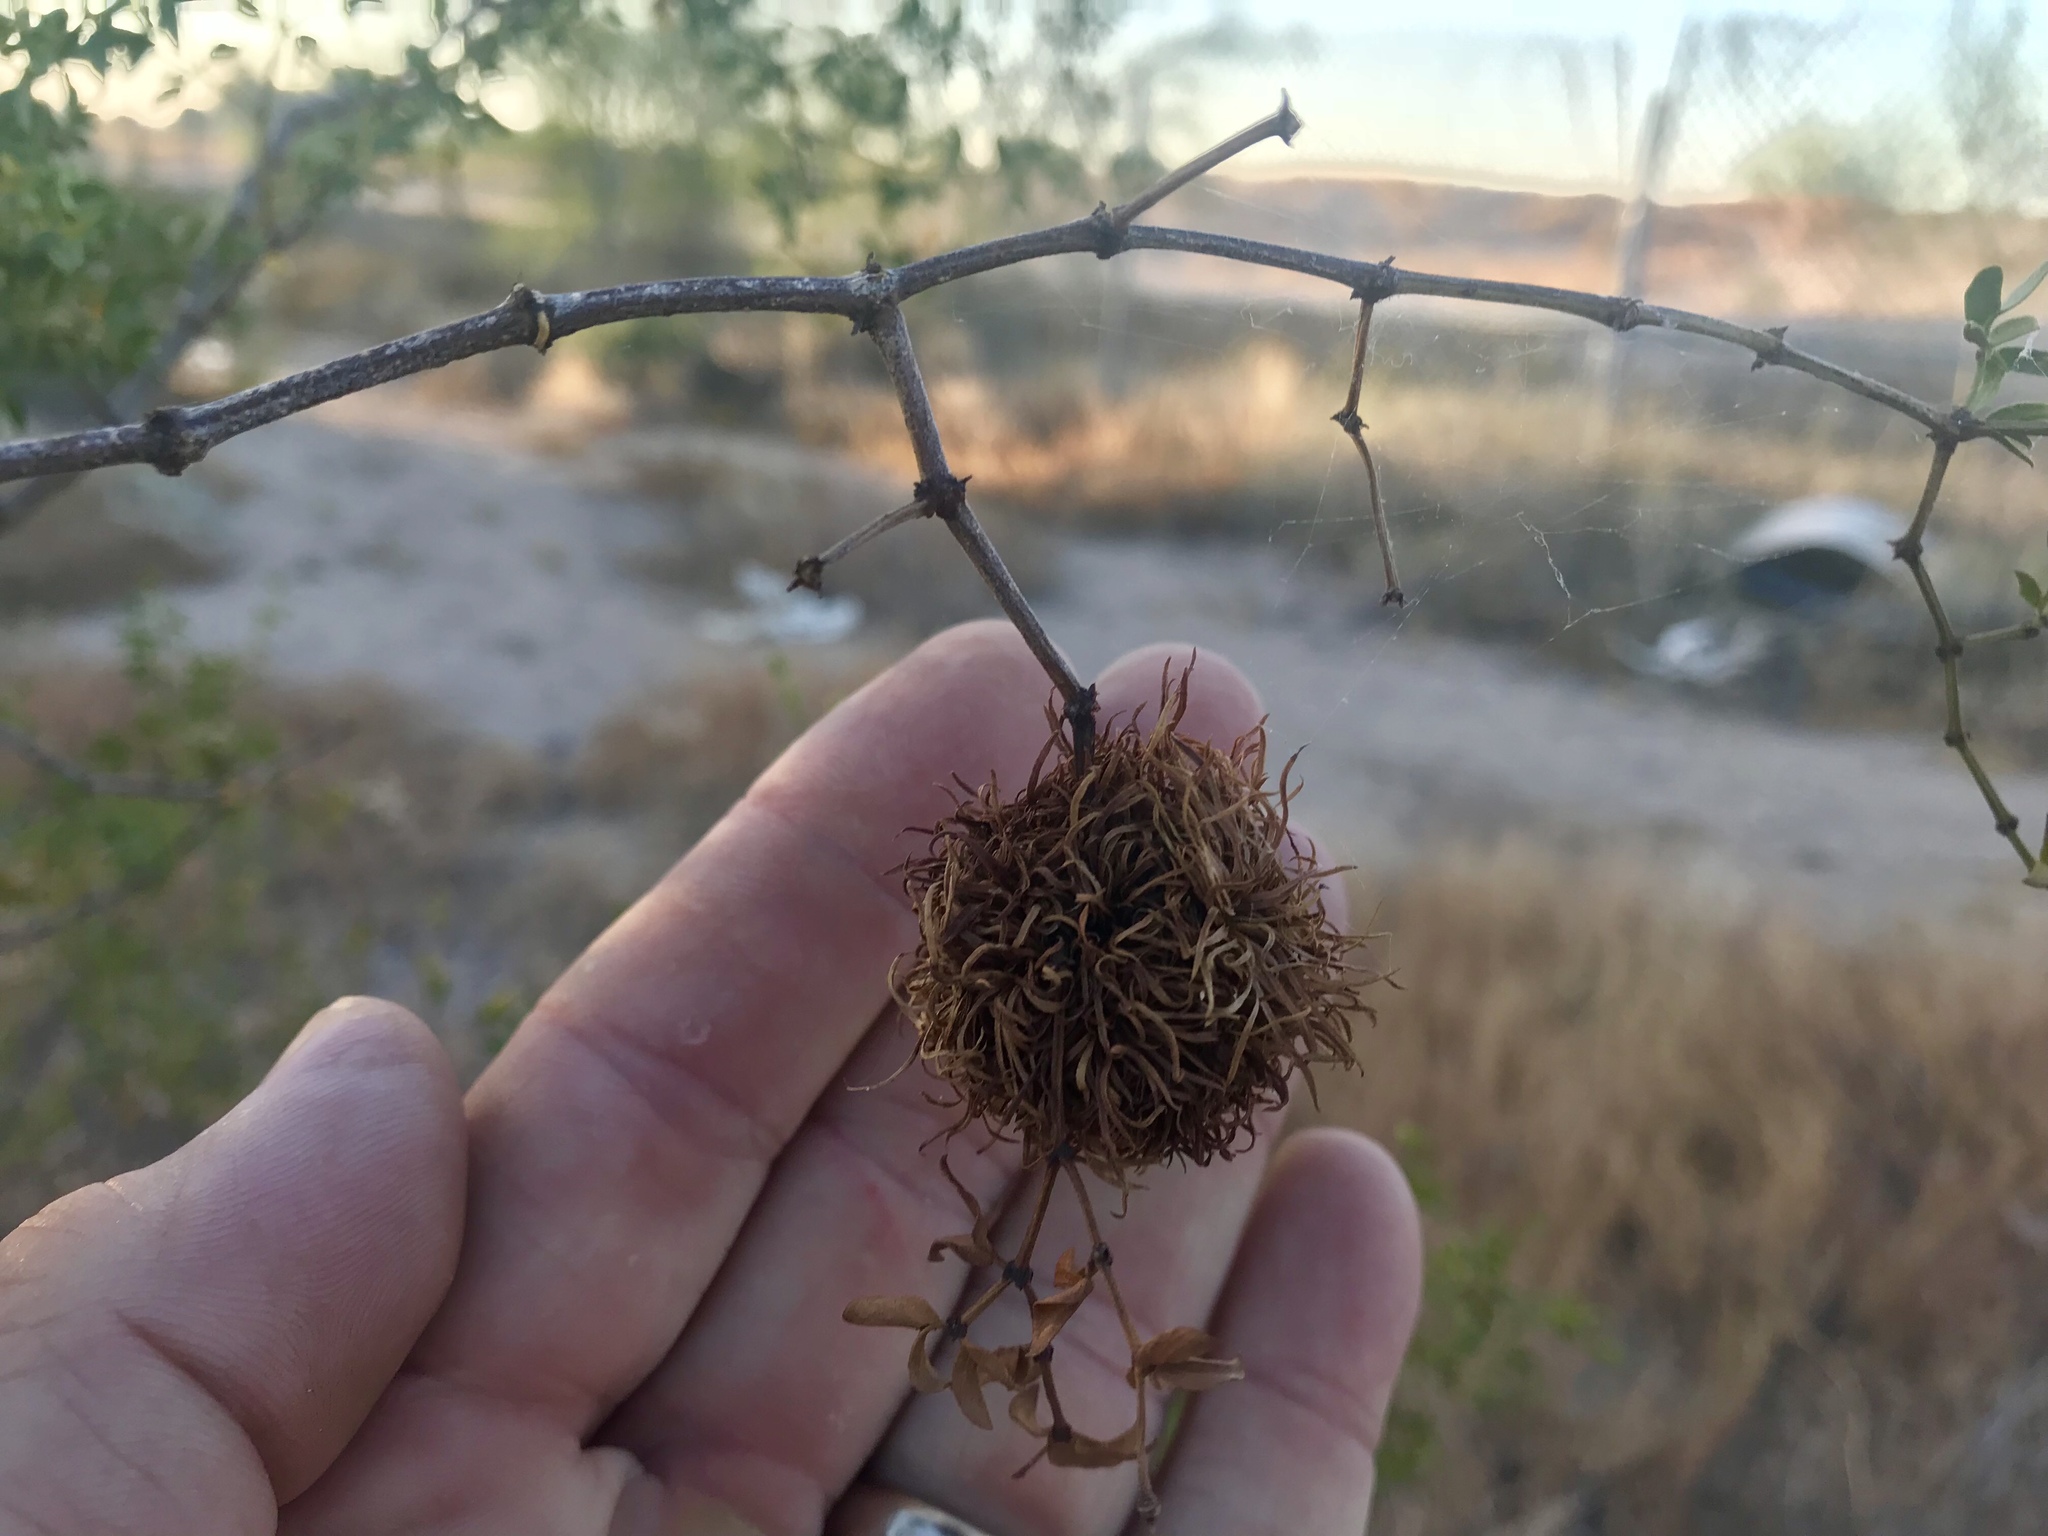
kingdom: Animalia
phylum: Arthropoda
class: Insecta
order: Diptera
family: Cecidomyiidae
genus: Asphondylia
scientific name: Asphondylia auripila
